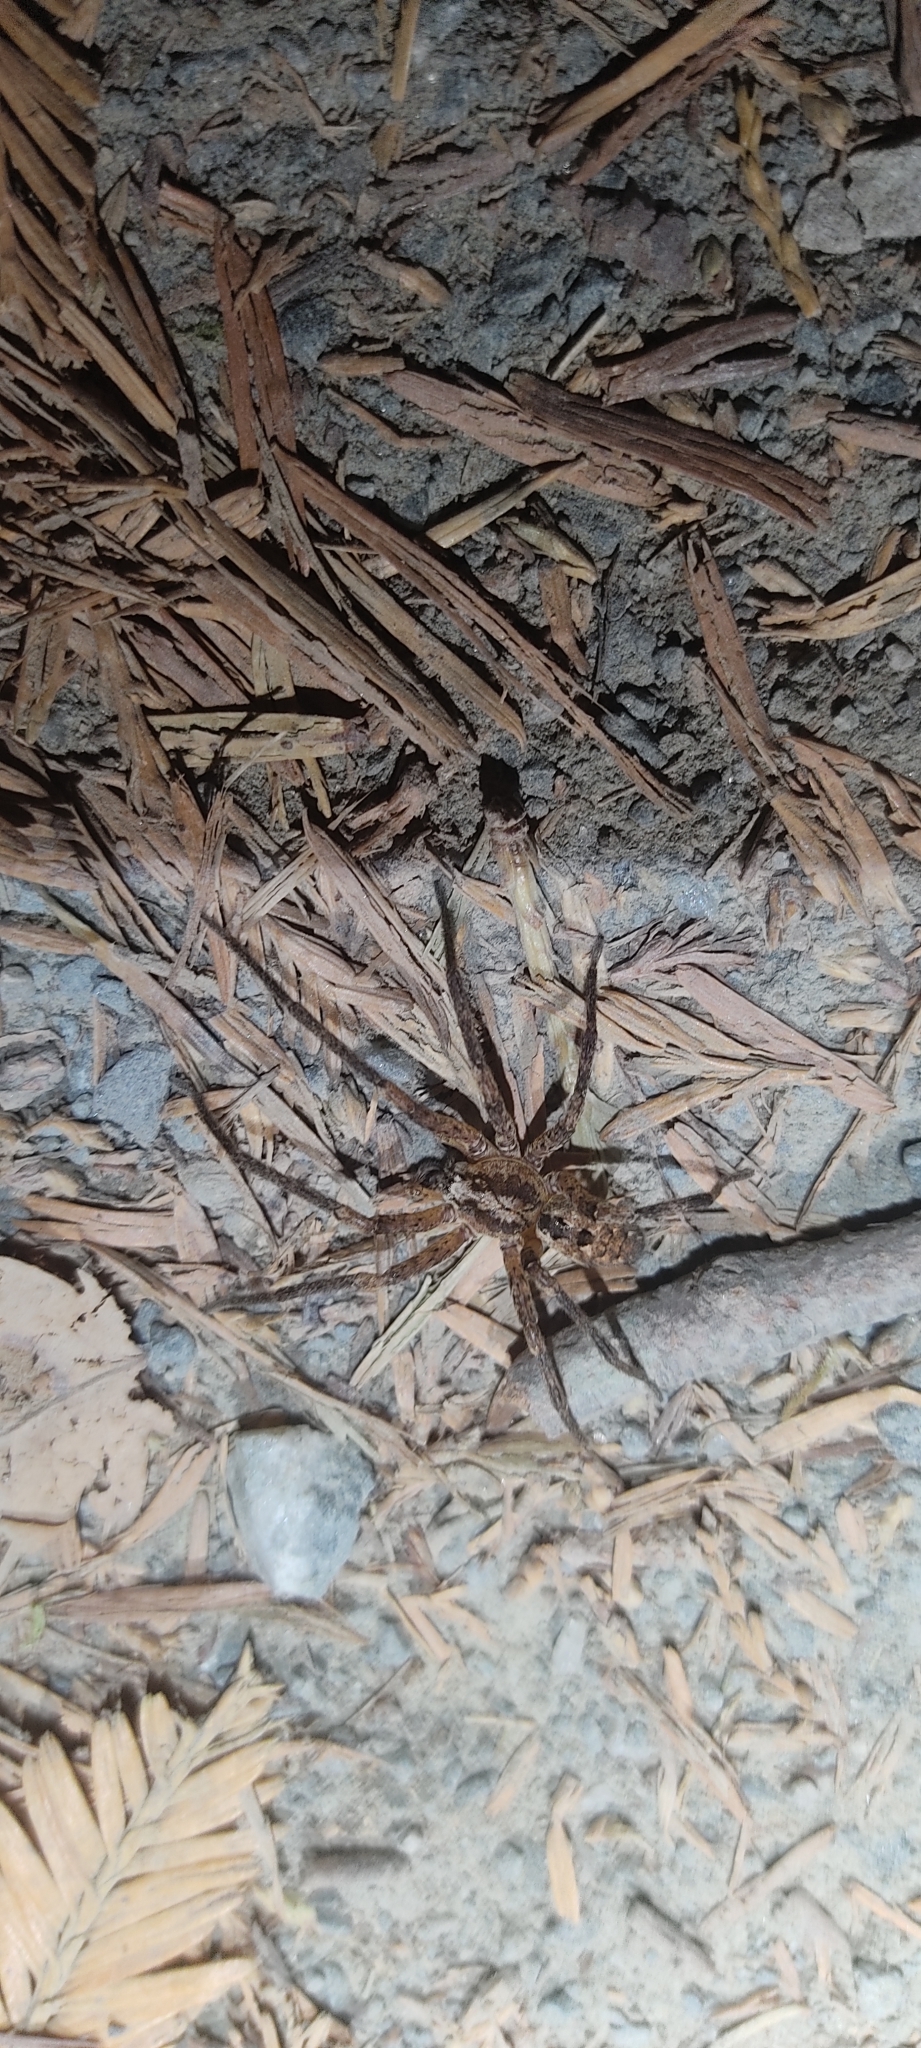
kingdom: Animalia
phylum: Arthropoda
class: Arachnida
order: Araneae
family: Zoropsidae
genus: Zoropsis
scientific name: Zoropsis spinimana
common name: Zoropsid spider
